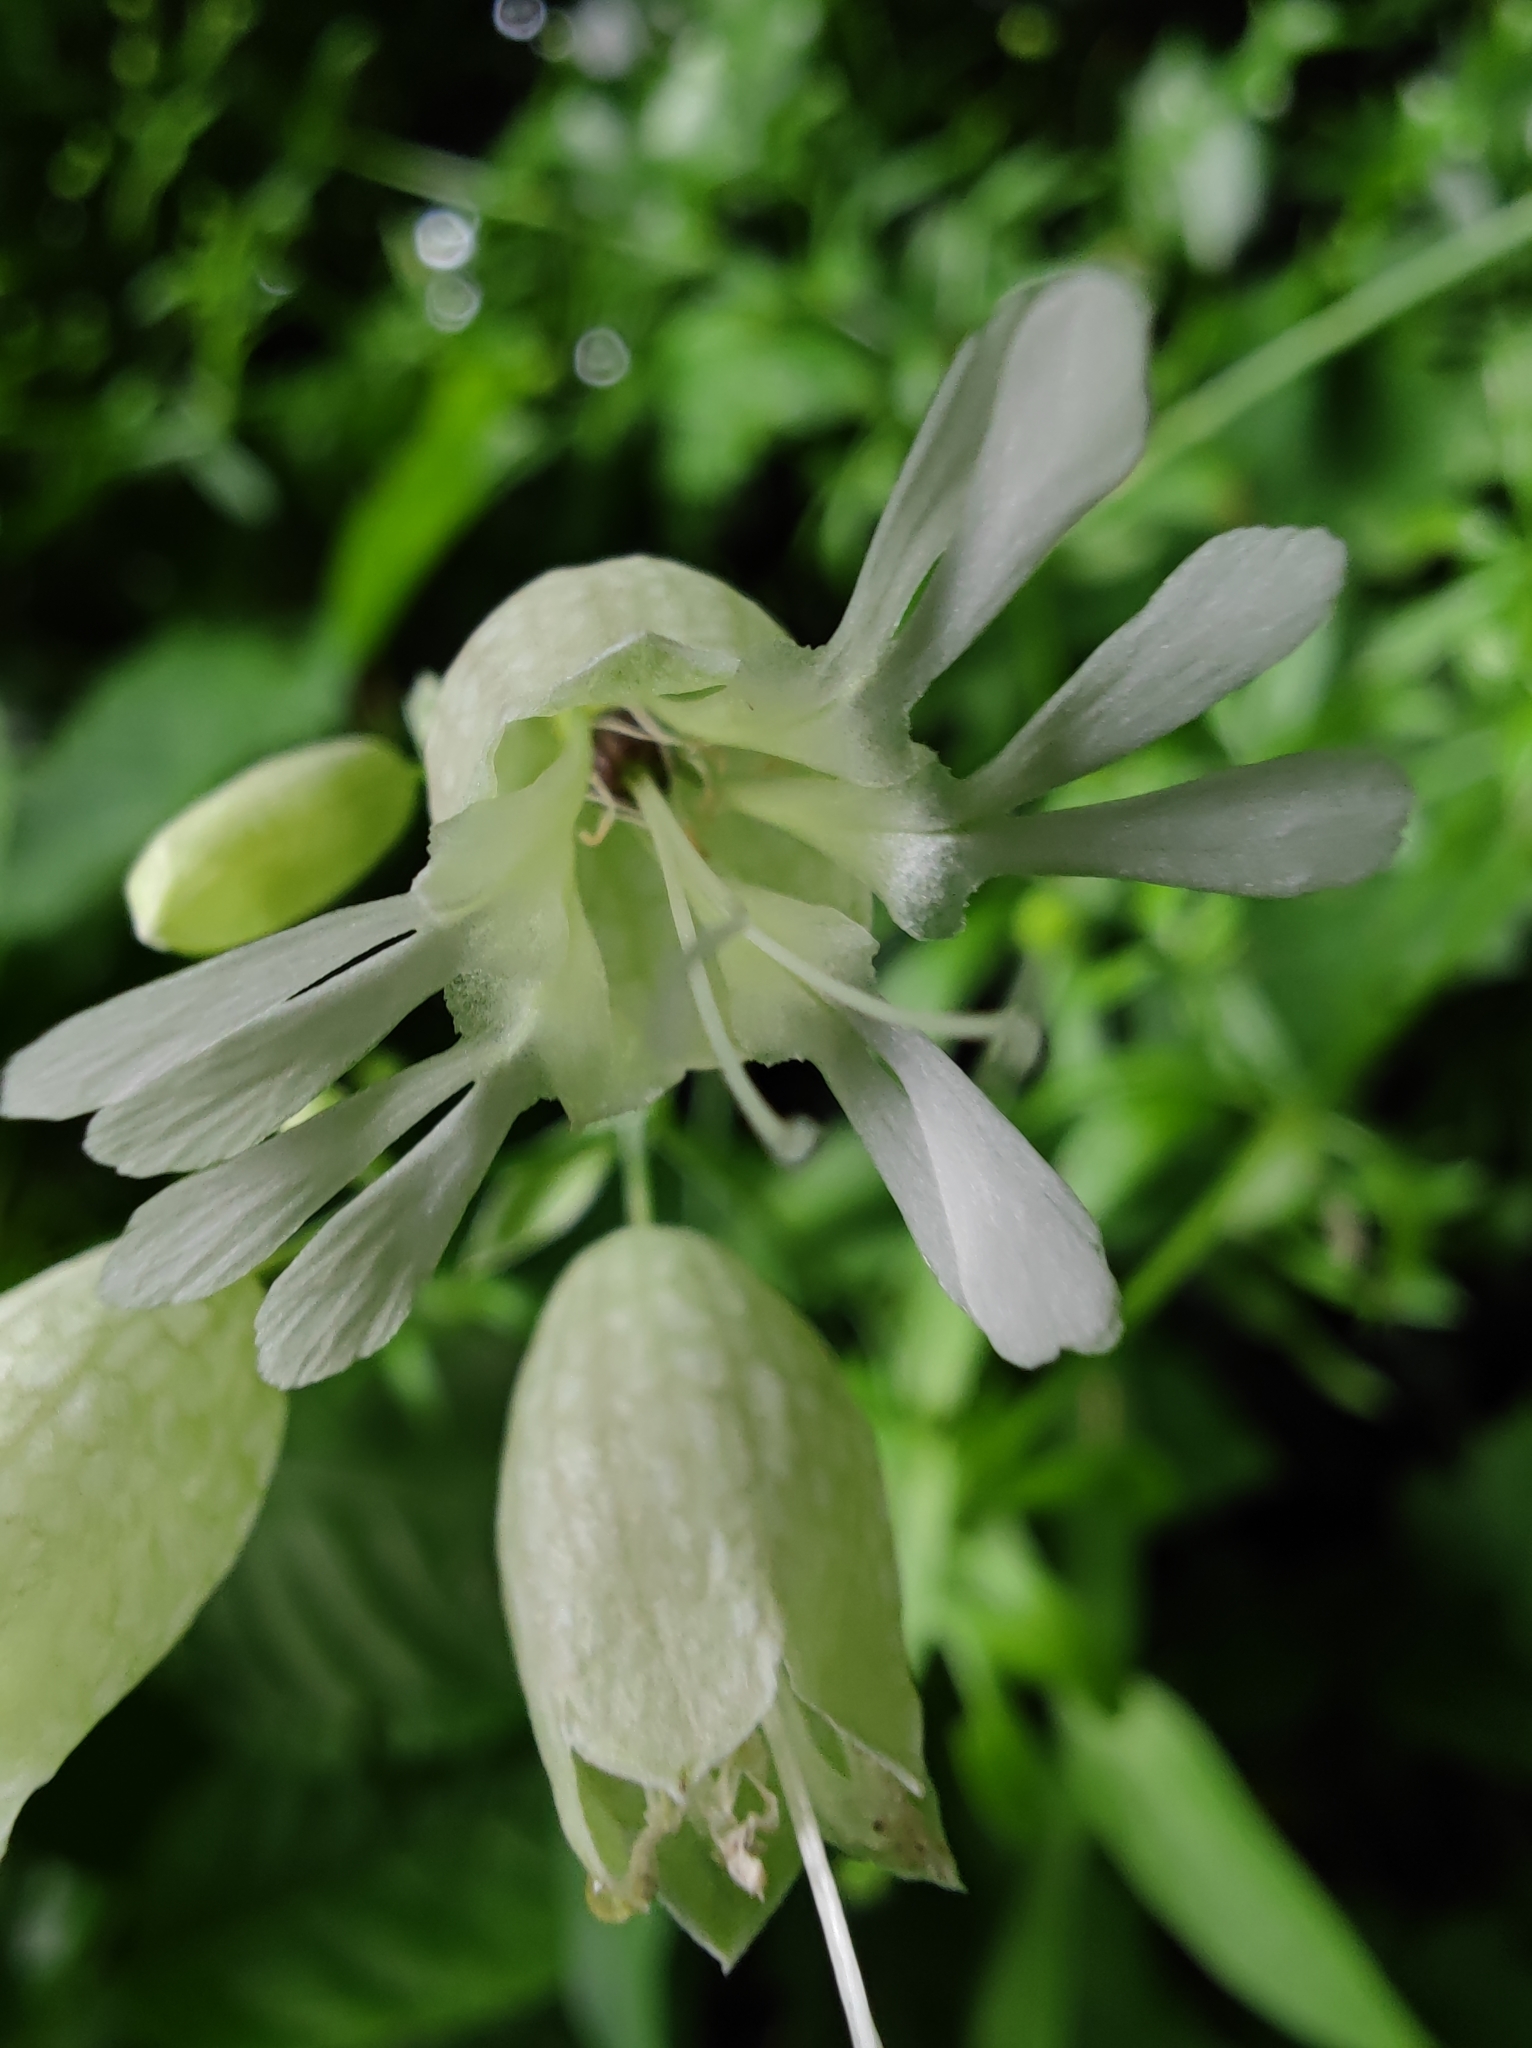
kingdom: Plantae
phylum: Tracheophyta
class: Magnoliopsida
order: Caryophyllales
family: Caryophyllaceae
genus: Silene
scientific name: Silene vulgaris
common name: Bladder campion
